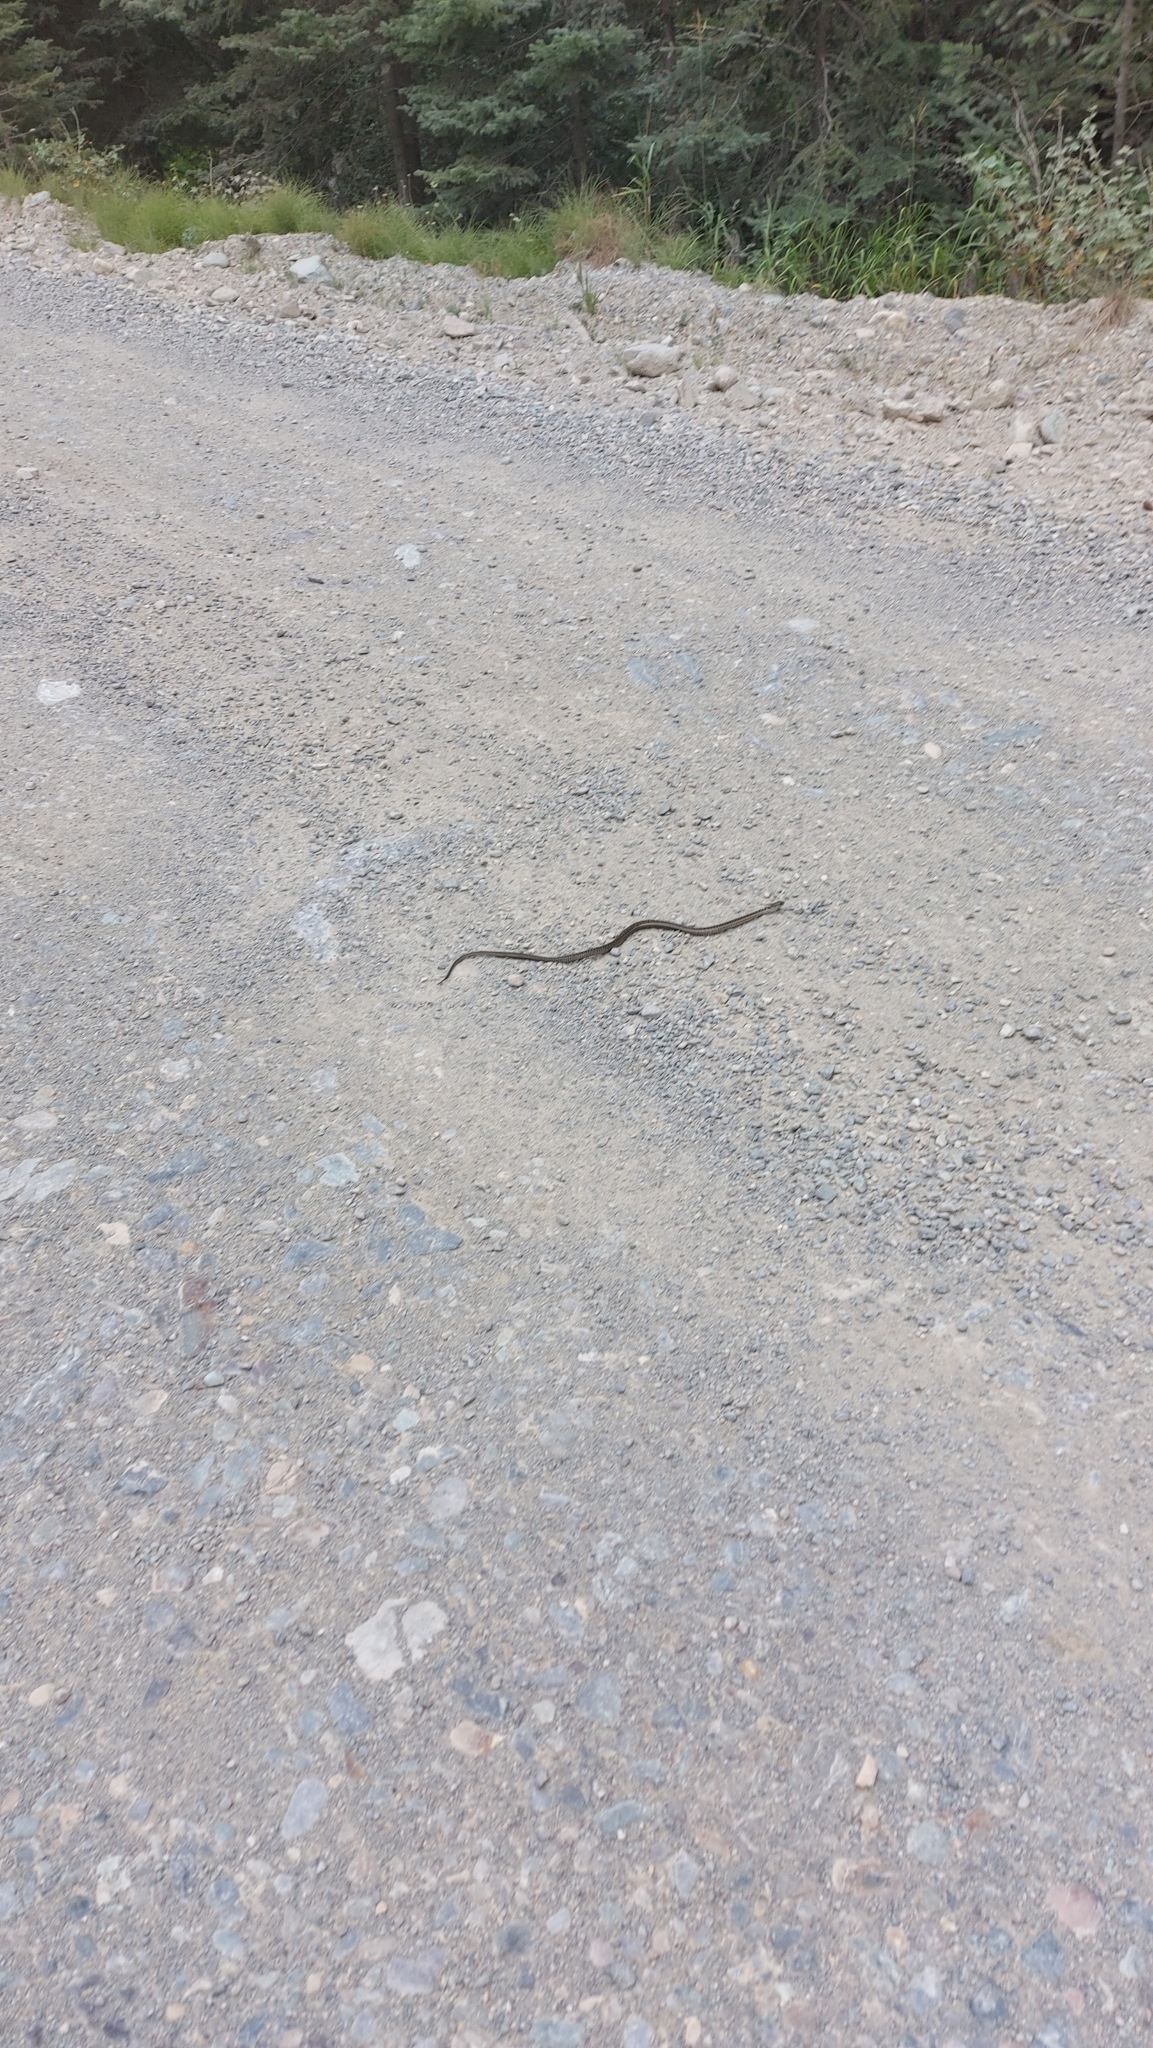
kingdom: Animalia
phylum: Chordata
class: Squamata
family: Colubridae
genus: Thamnophis
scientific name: Thamnophis elegans
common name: Western terrestrial garter snake
